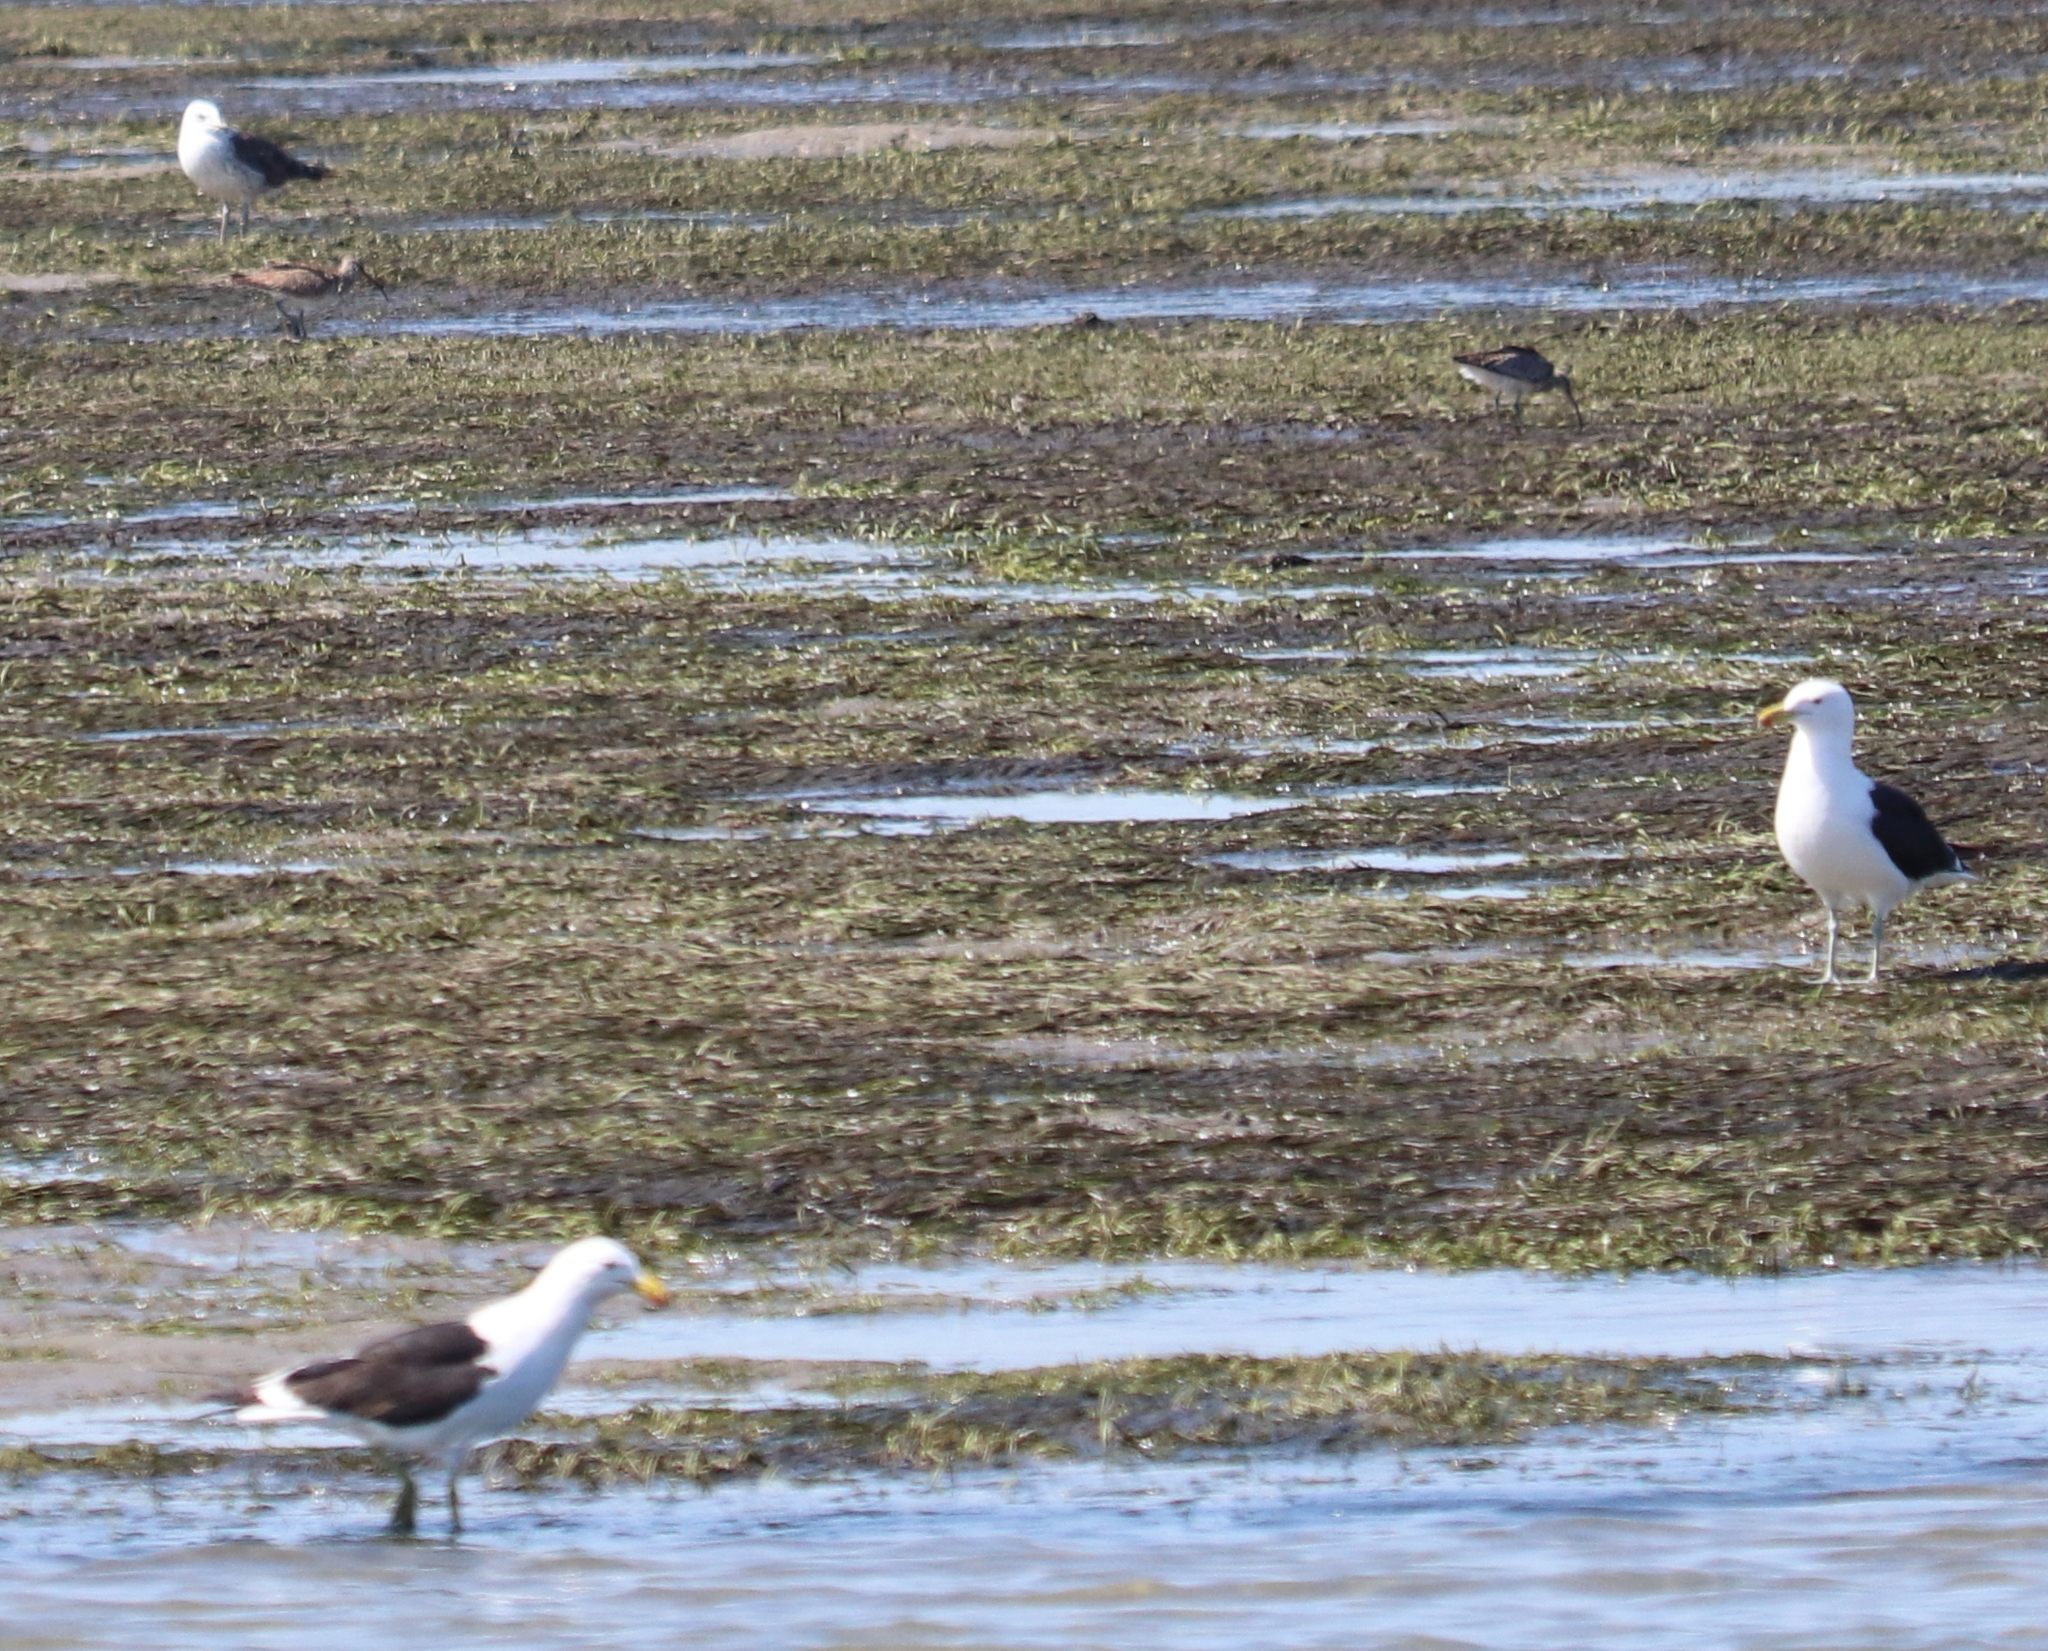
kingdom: Animalia
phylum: Chordata
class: Aves
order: Charadriiformes
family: Laridae
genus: Larus
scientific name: Larus dominicanus
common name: Kelp gull
